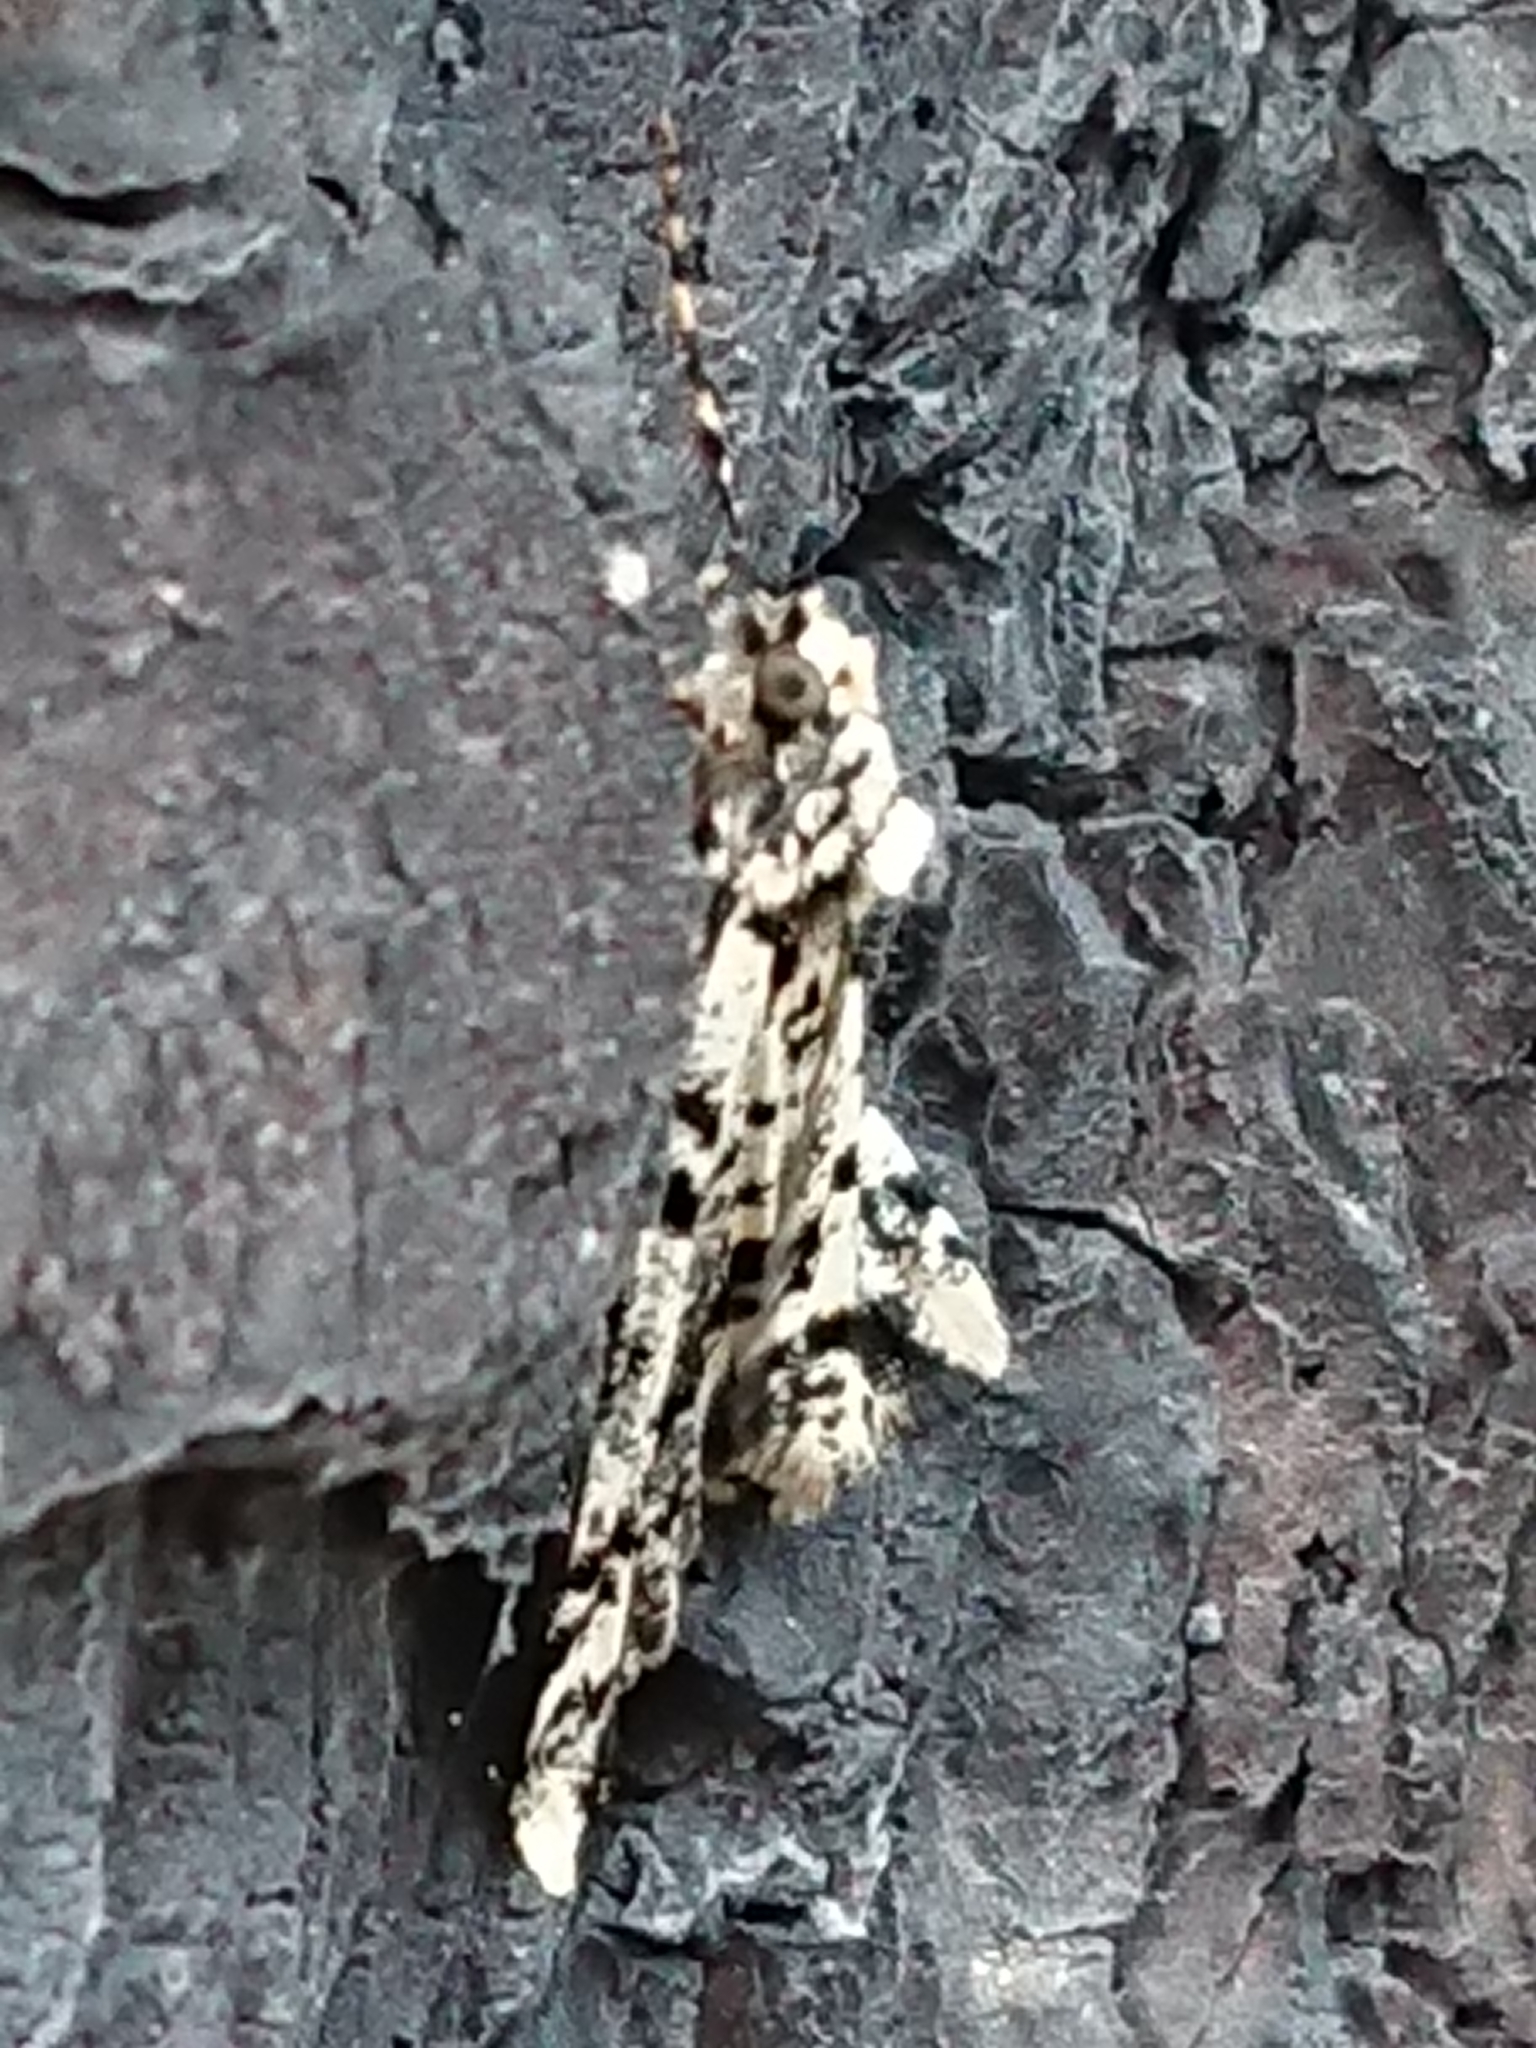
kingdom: Animalia
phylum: Arthropoda
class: Insecta
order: Lepidoptera
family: Geometridae
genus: Pseudocoremia
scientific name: Pseudocoremia leucelaea
